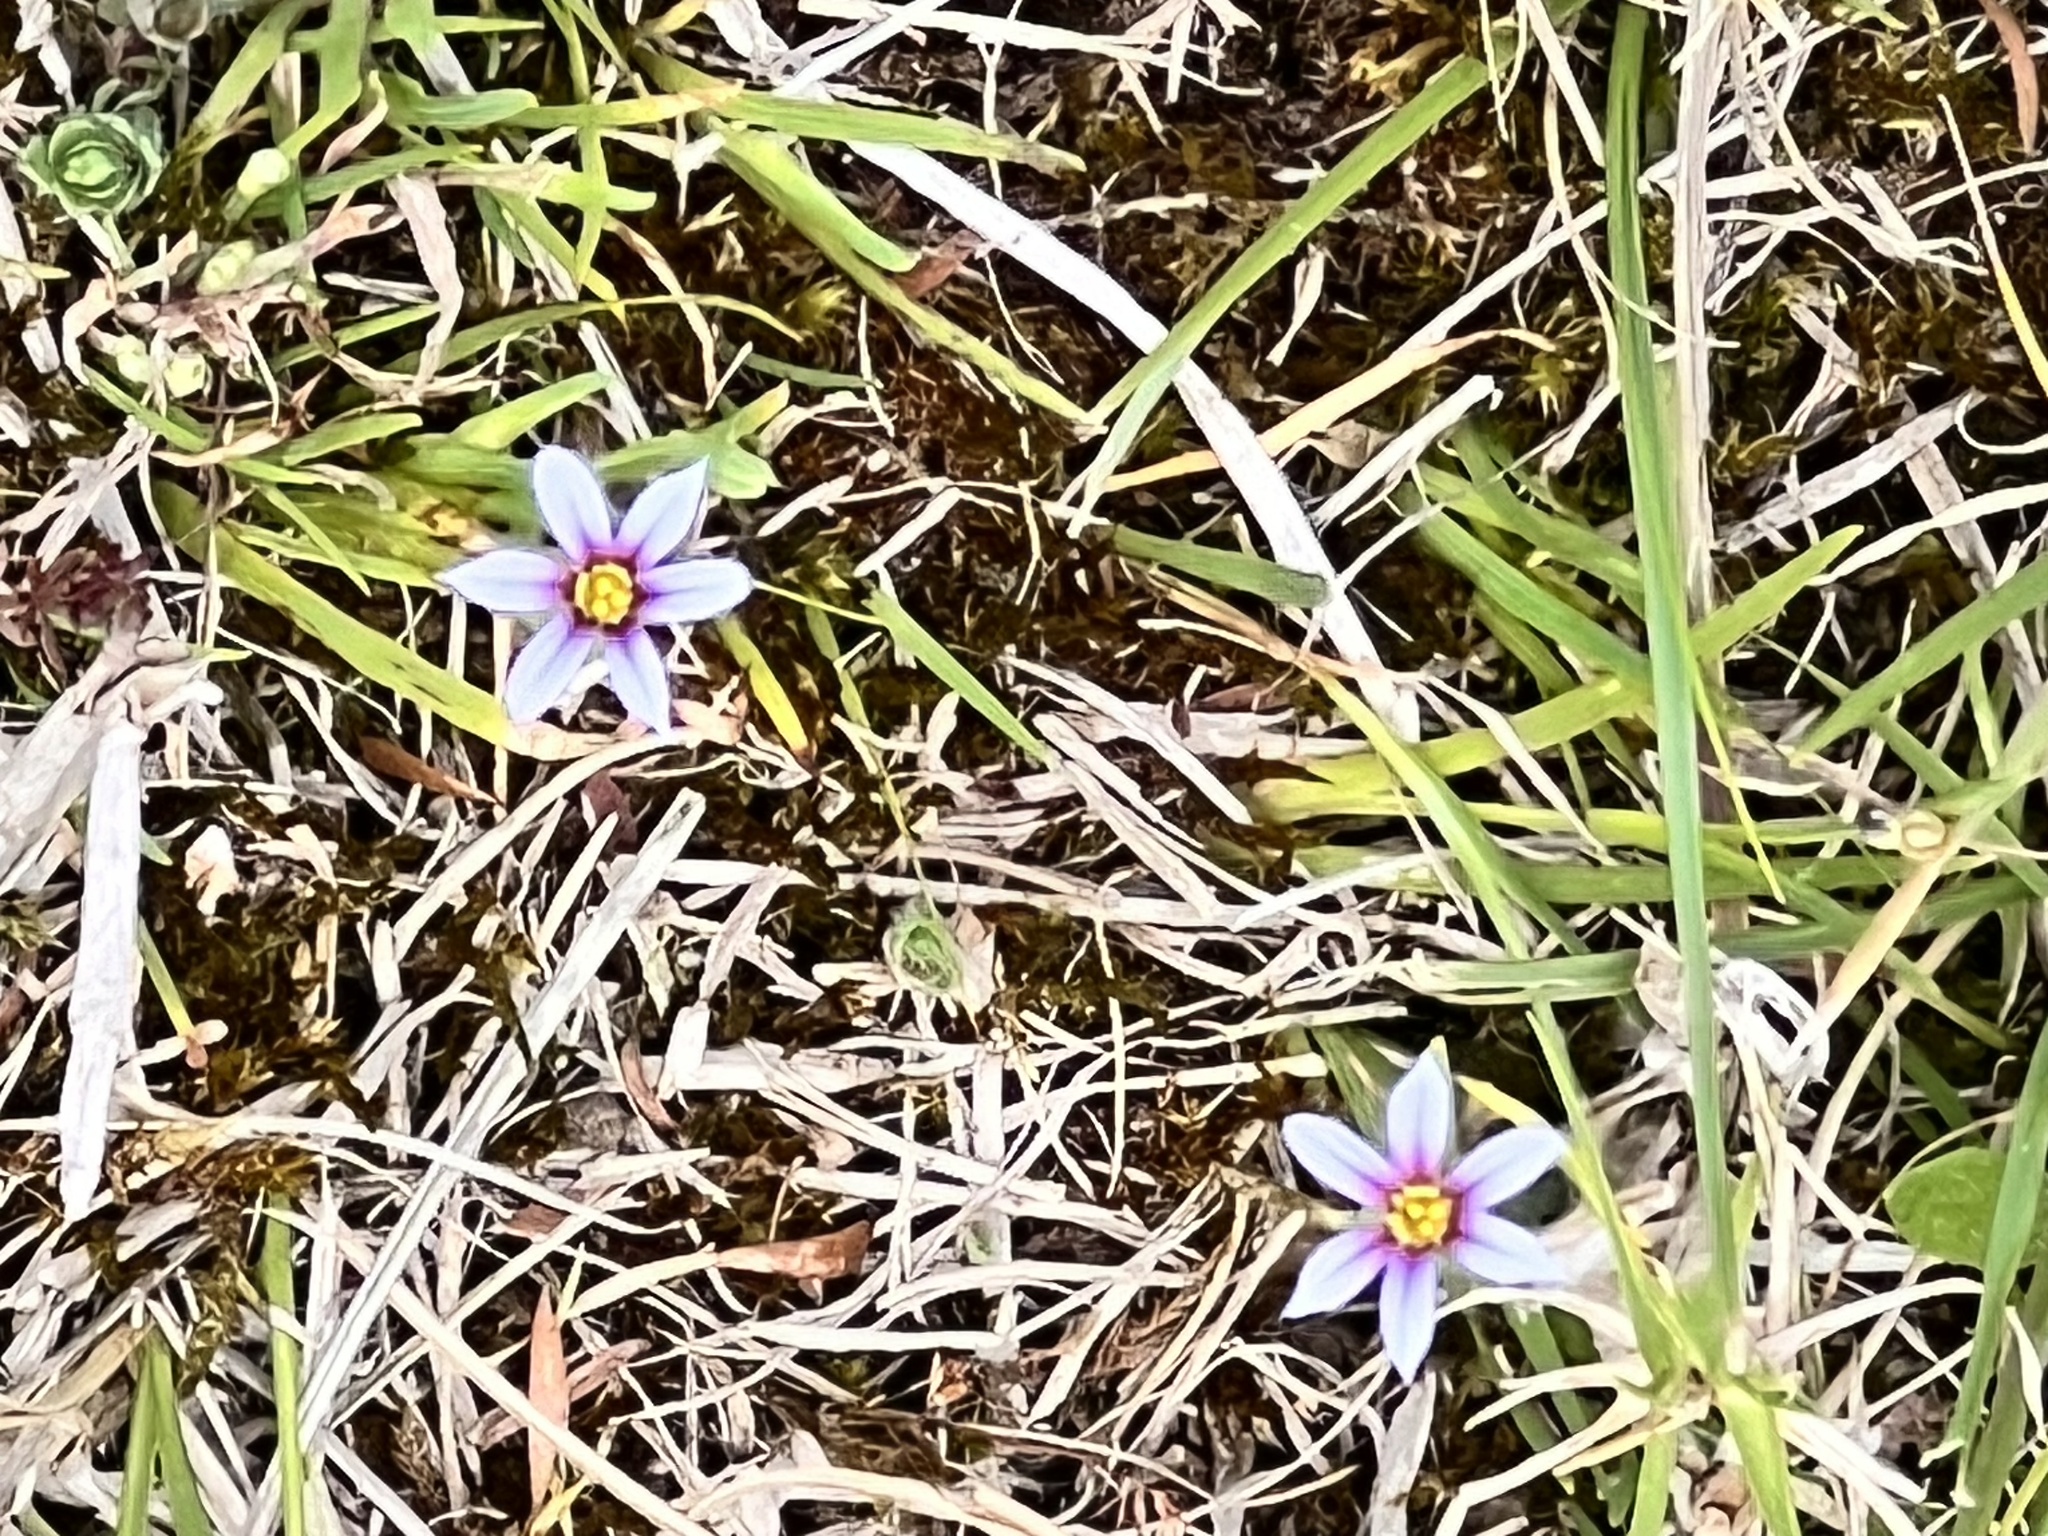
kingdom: Plantae
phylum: Tracheophyta
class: Liliopsida
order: Asparagales
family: Iridaceae
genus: Sisyrinchium
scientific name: Sisyrinchium micranthum
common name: Bermuda pigroot
